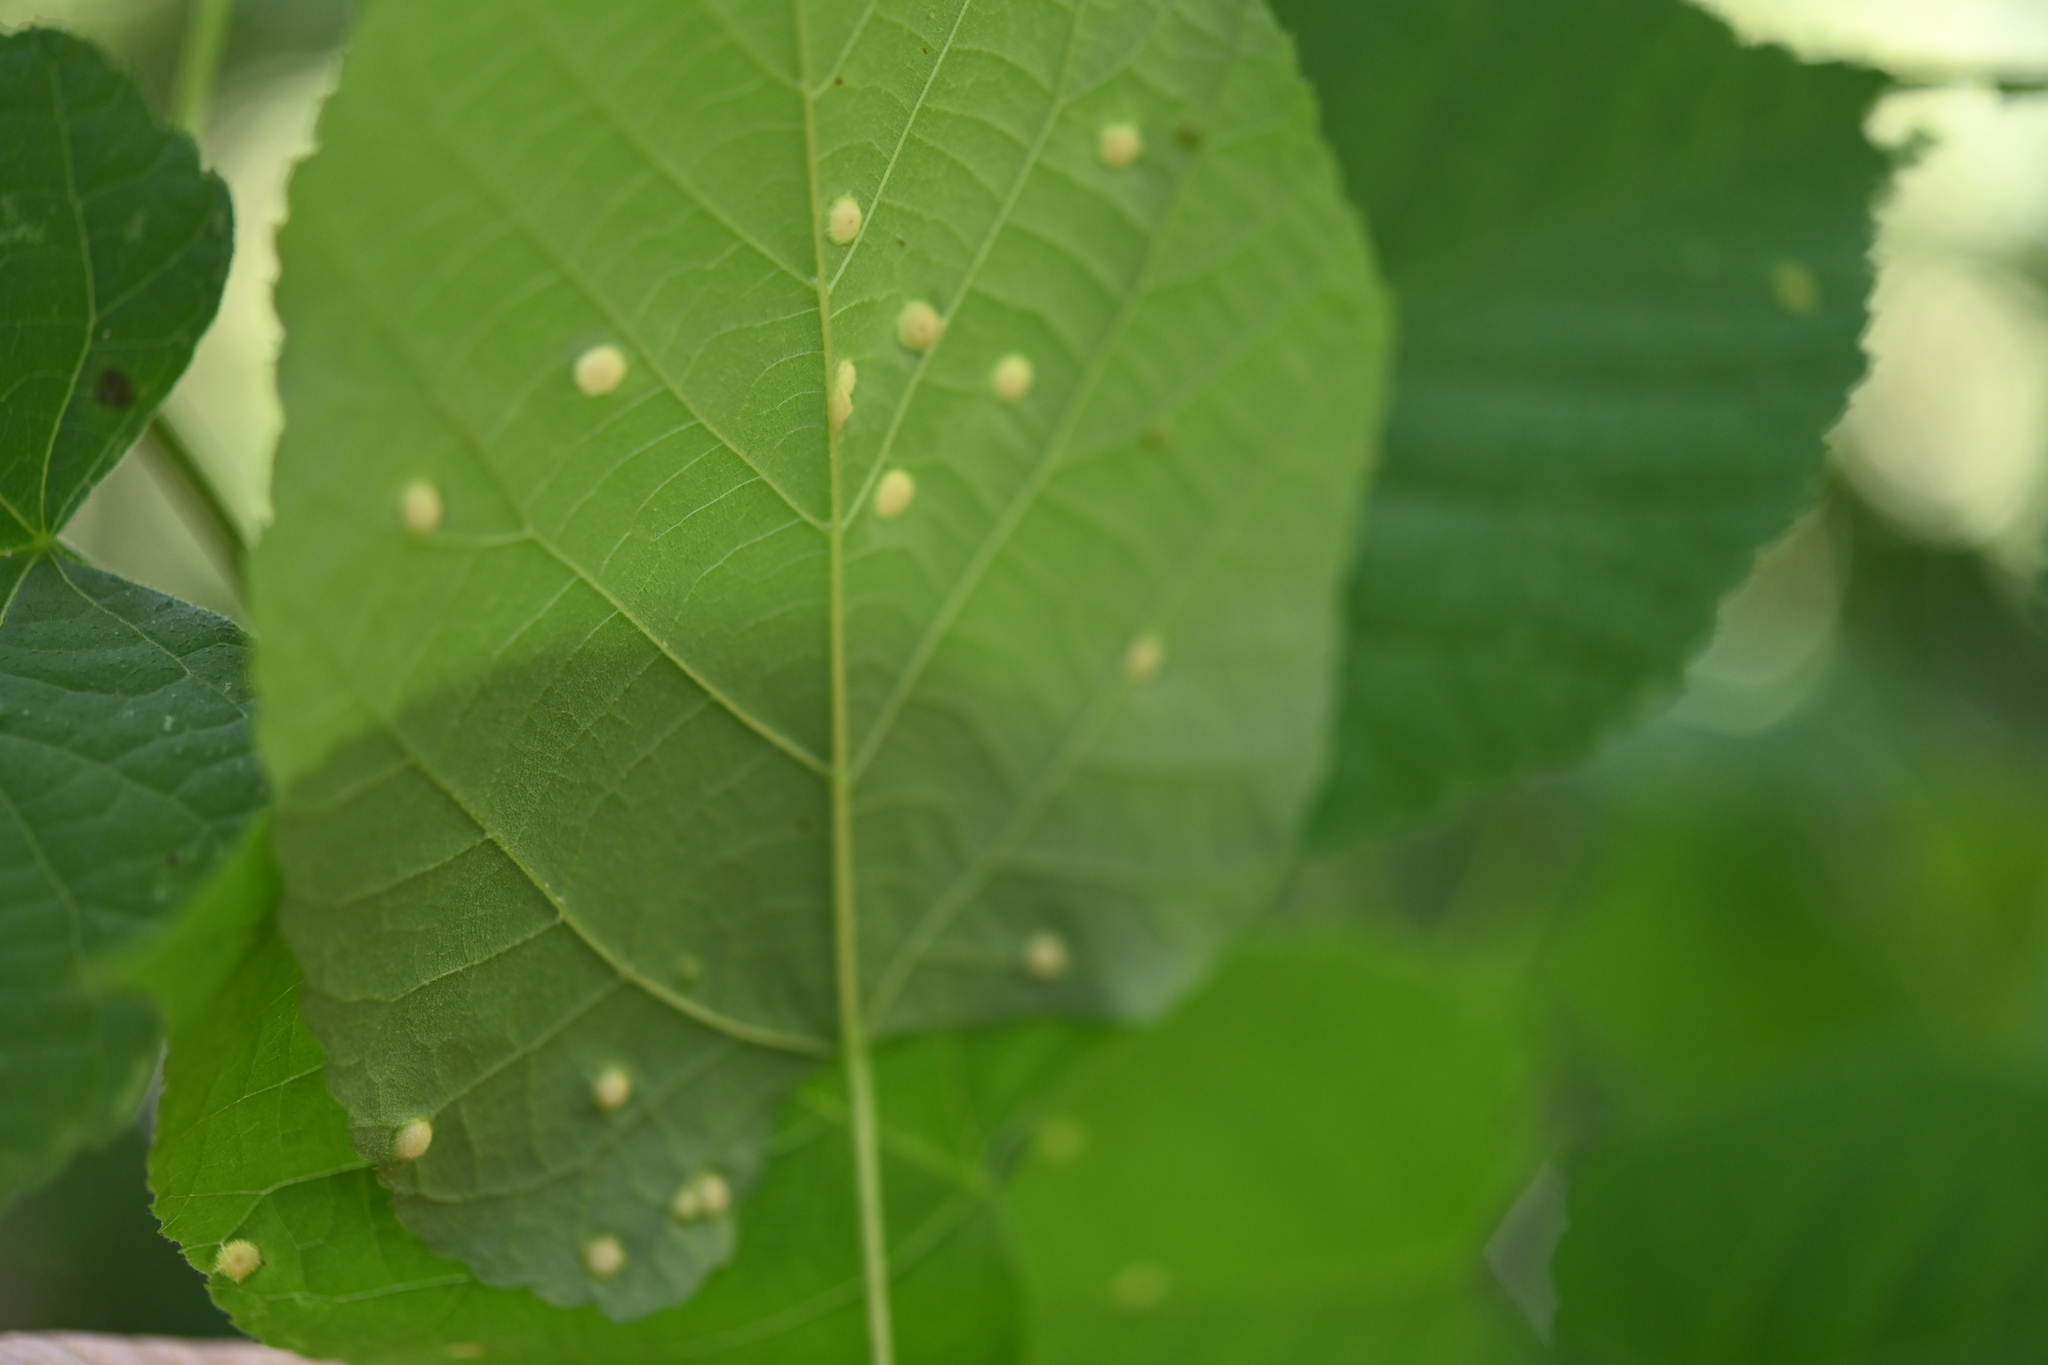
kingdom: Animalia
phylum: Arthropoda
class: Insecta
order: Diptera
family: Cecidomyiidae
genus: Contarinia
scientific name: Contarinia verrucicola
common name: Linden wart gall midge
